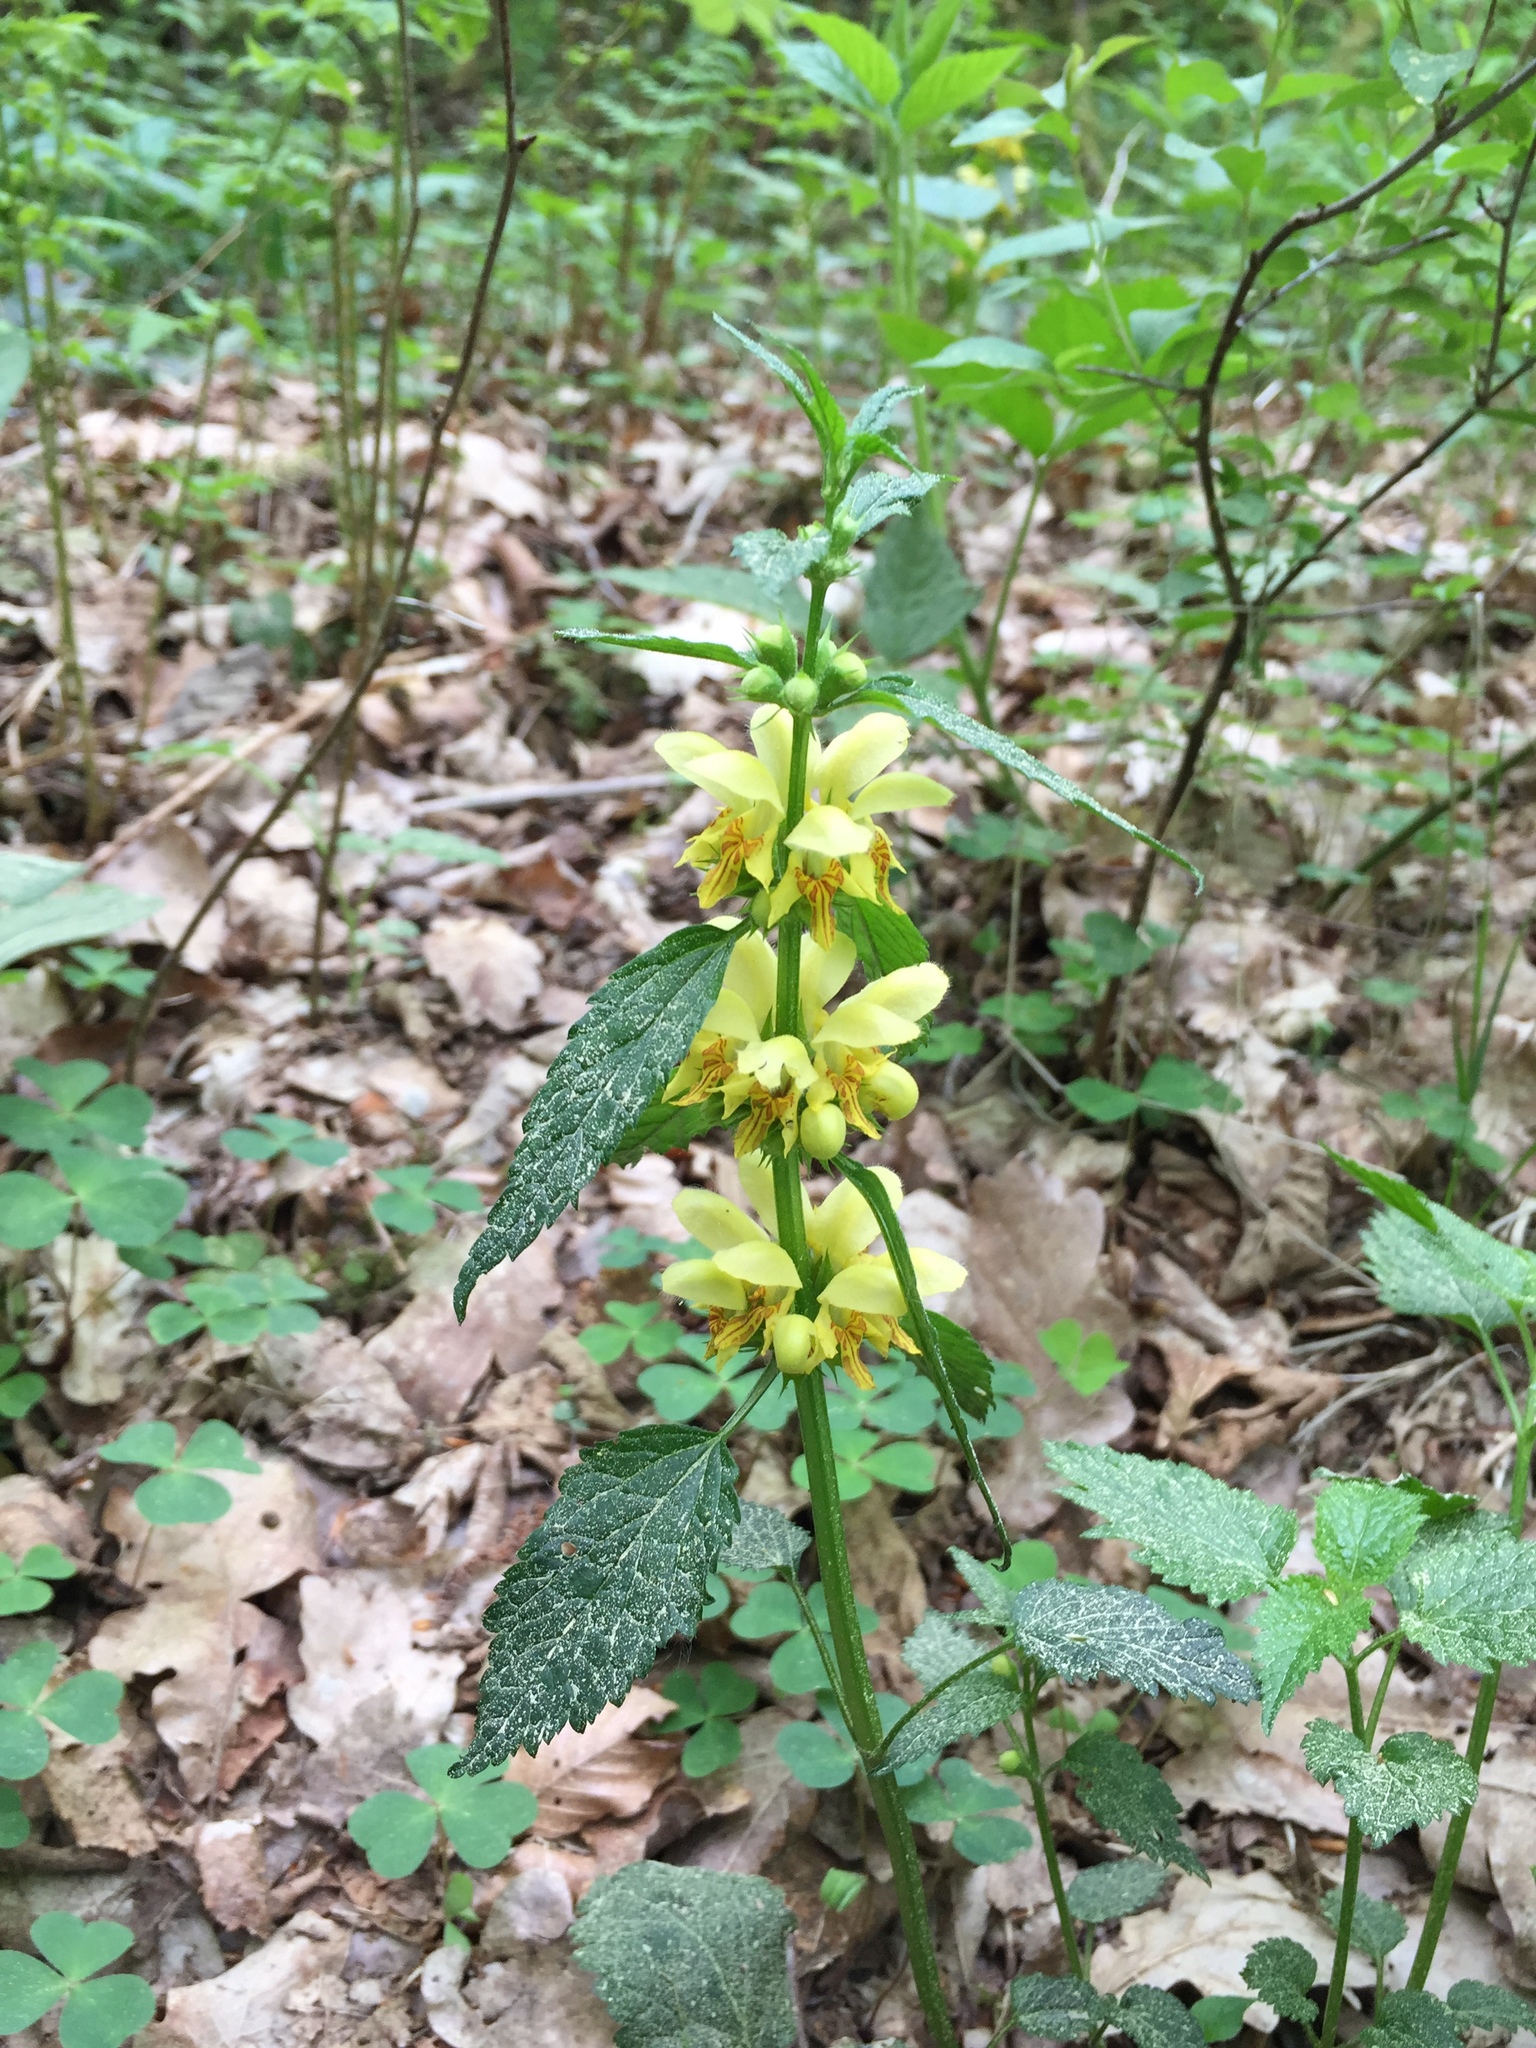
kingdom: Plantae
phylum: Tracheophyta
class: Magnoliopsida
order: Lamiales
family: Lamiaceae
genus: Lamium
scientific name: Lamium galeobdolon
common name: Yellow archangel
